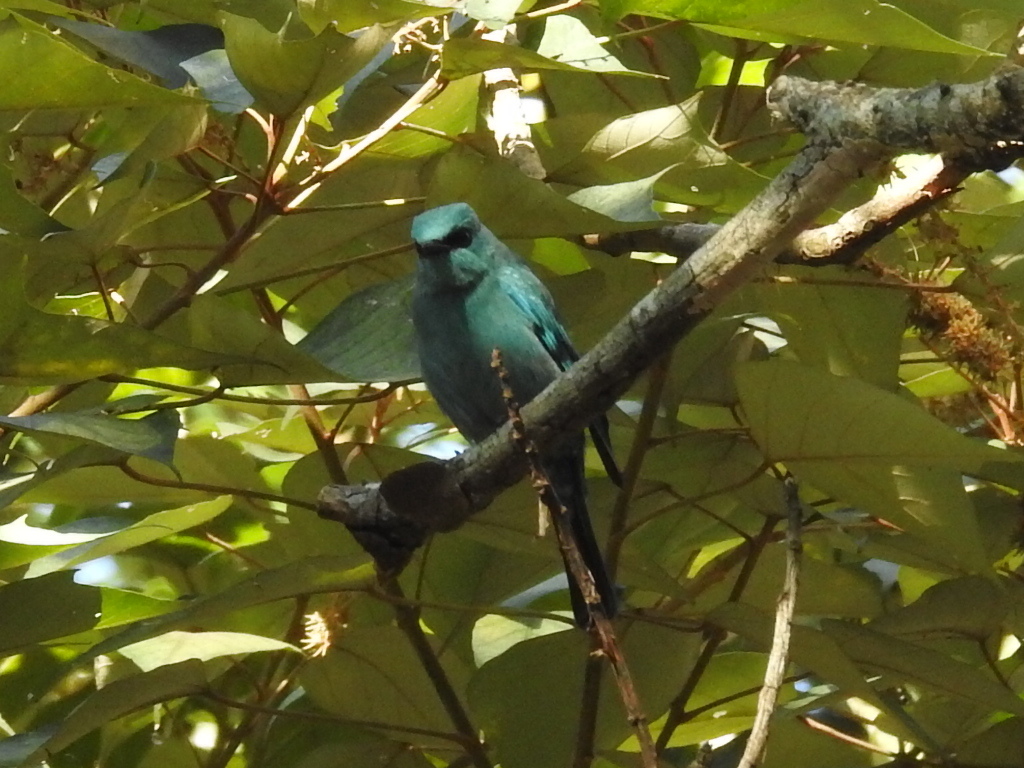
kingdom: Animalia
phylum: Chordata
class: Aves
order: Passeriformes
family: Muscicapidae
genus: Eumyias
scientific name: Eumyias thalassinus
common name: Verditer flycatcher
